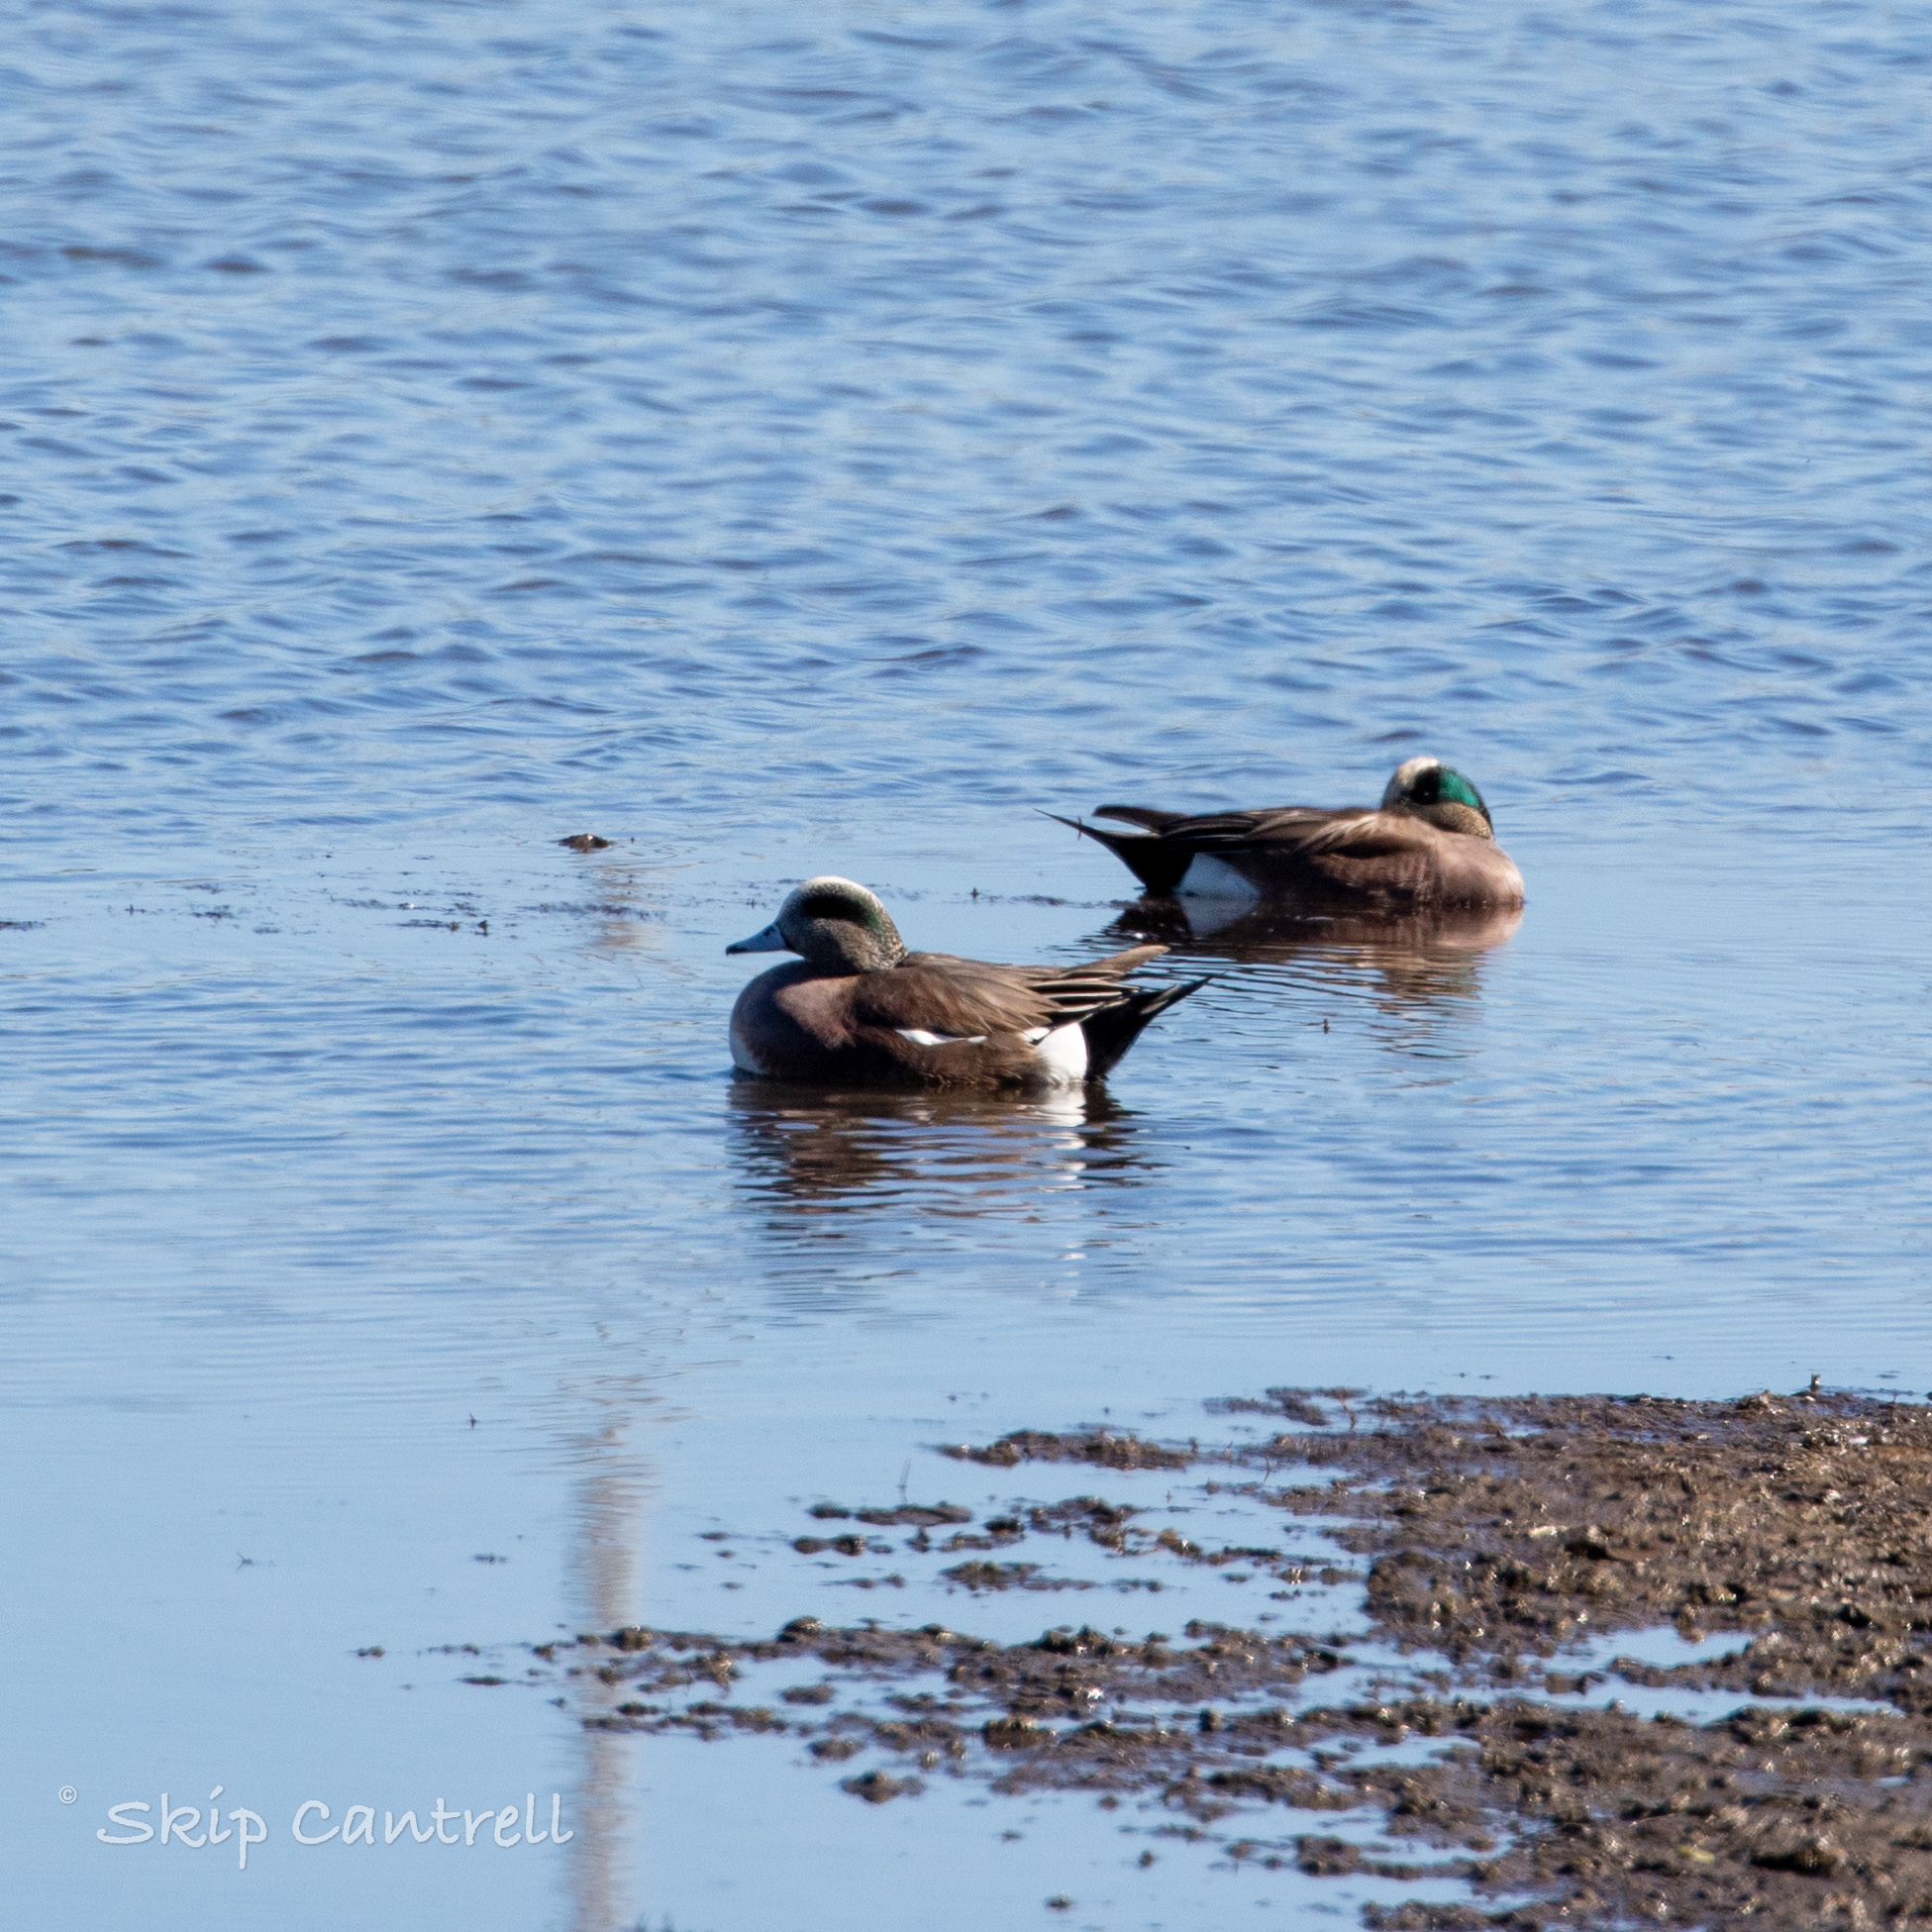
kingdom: Animalia
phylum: Chordata
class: Aves
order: Anseriformes
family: Anatidae
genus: Mareca
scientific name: Mareca americana
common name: American wigeon
